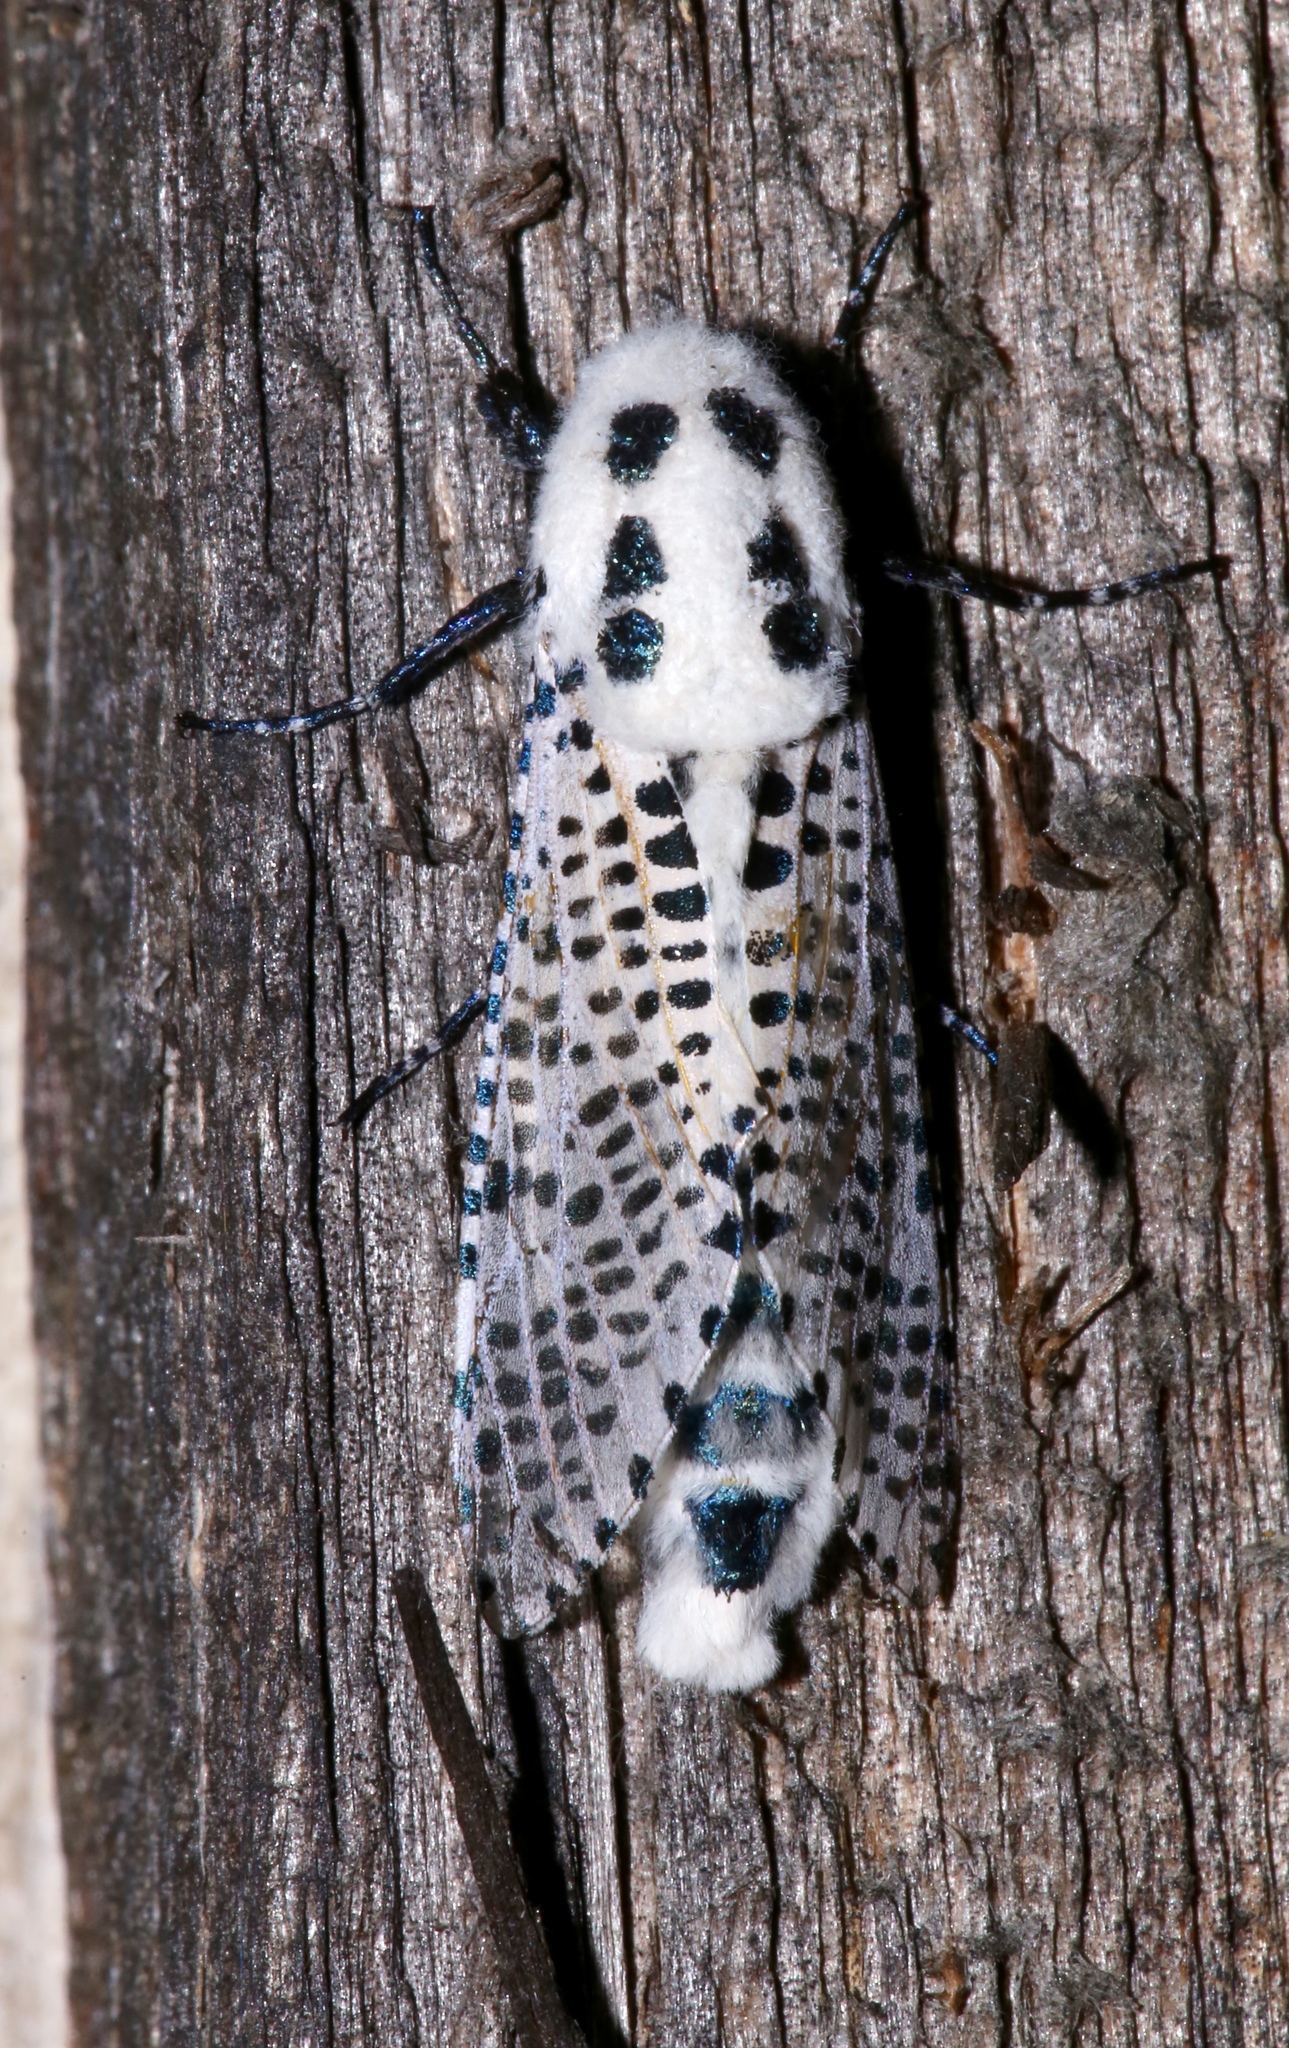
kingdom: Animalia
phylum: Arthropoda
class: Insecta
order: Lepidoptera
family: Cossidae
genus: Zeuzera
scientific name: Zeuzera pyrina
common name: Leopard moth
